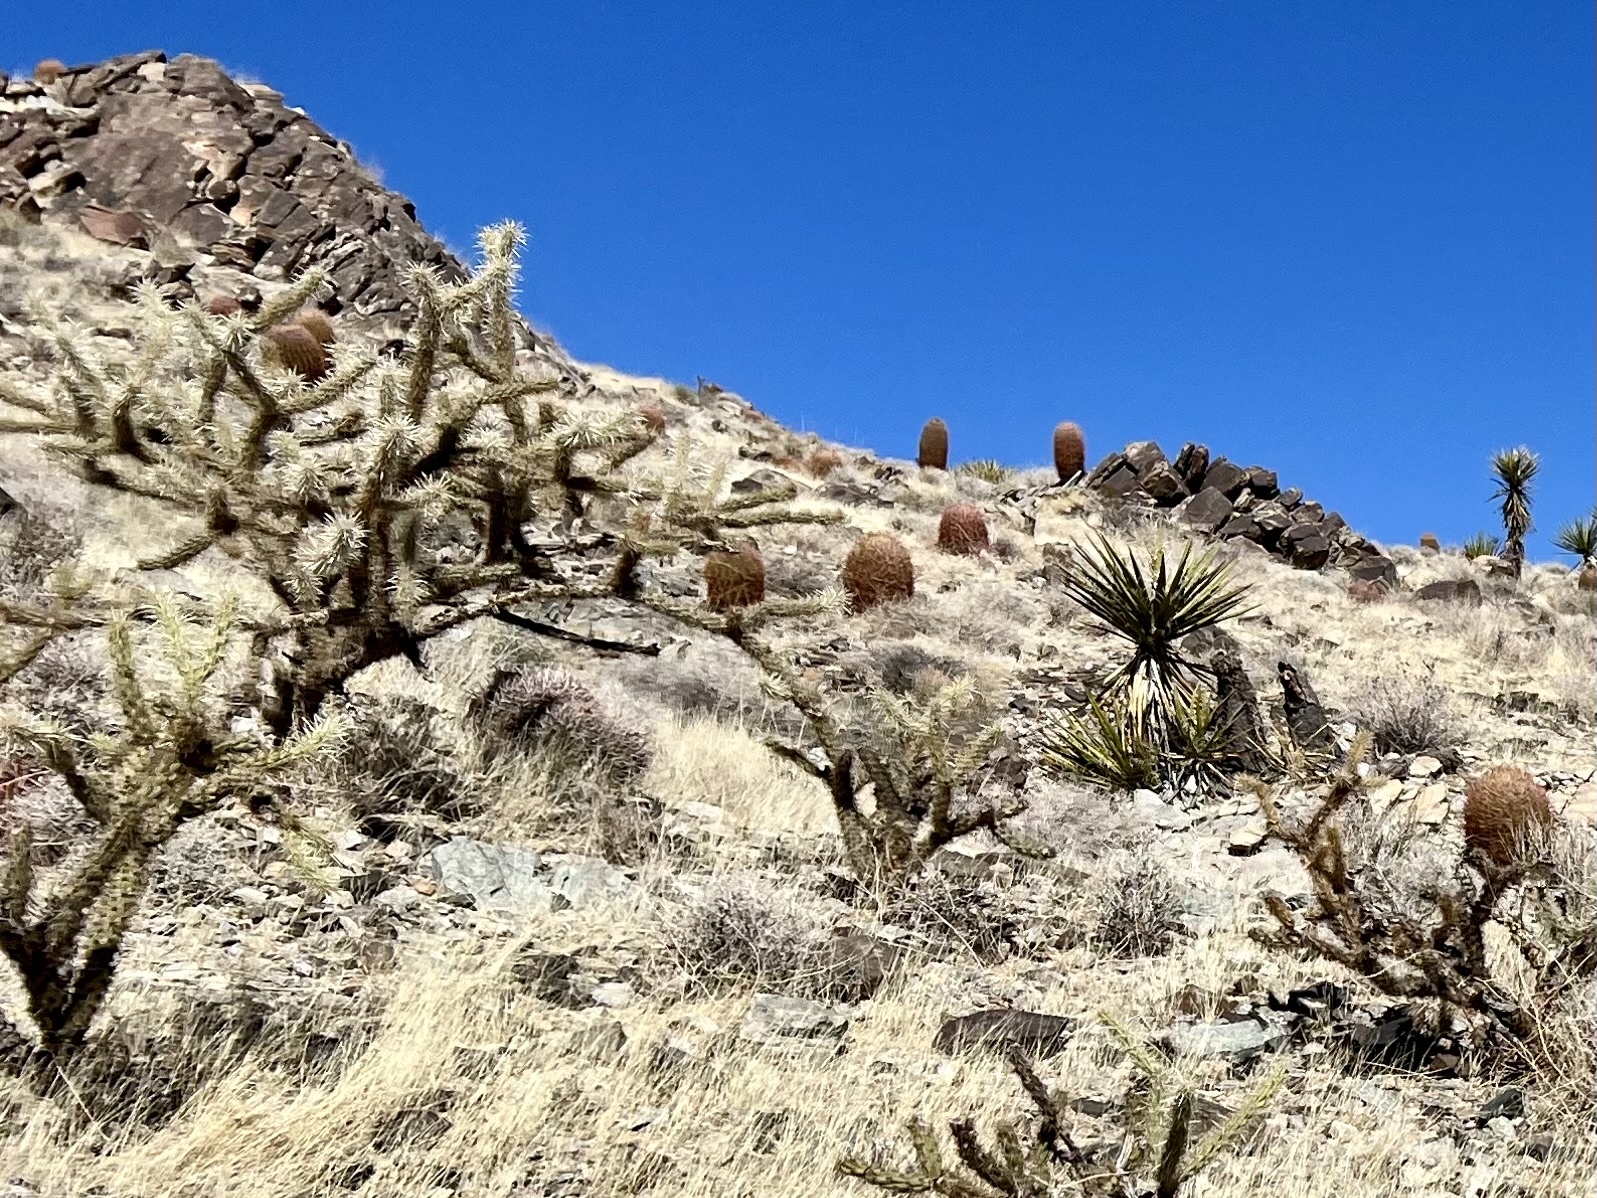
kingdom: Plantae
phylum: Tracheophyta
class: Magnoliopsida
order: Caryophyllales
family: Cactaceae
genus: Cylindropuntia
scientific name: Cylindropuntia acanthocarpa
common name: Buckhorn cholla
